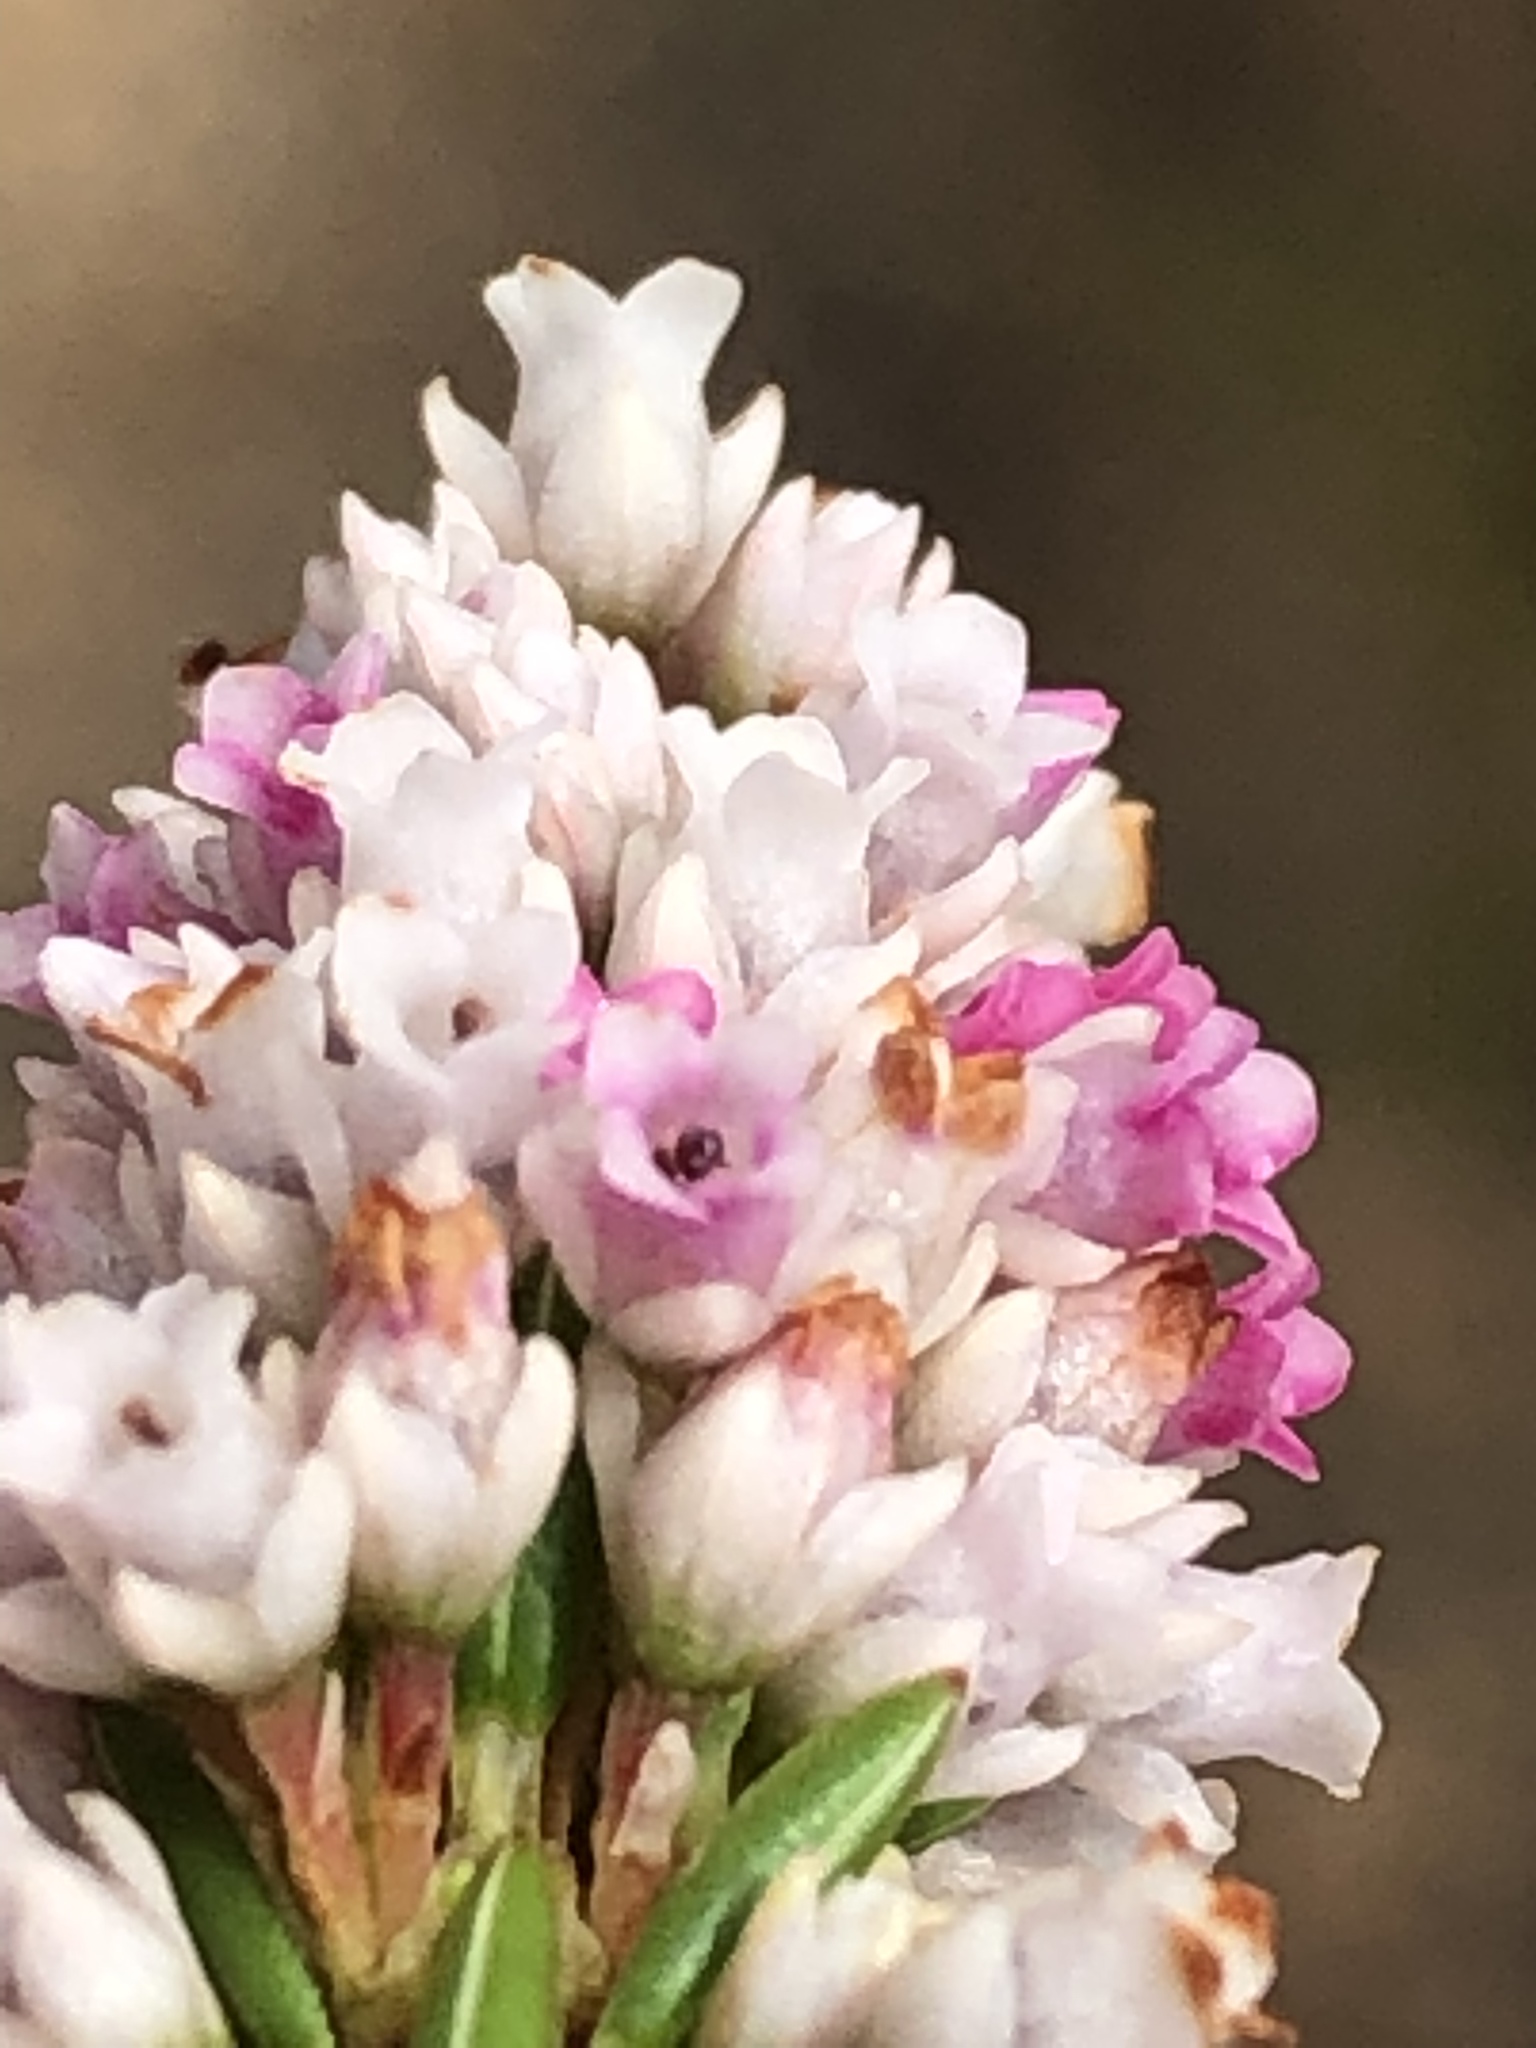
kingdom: Plantae
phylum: Tracheophyta
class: Magnoliopsida
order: Ericales
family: Ericaceae
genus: Erica
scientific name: Erica articularis
